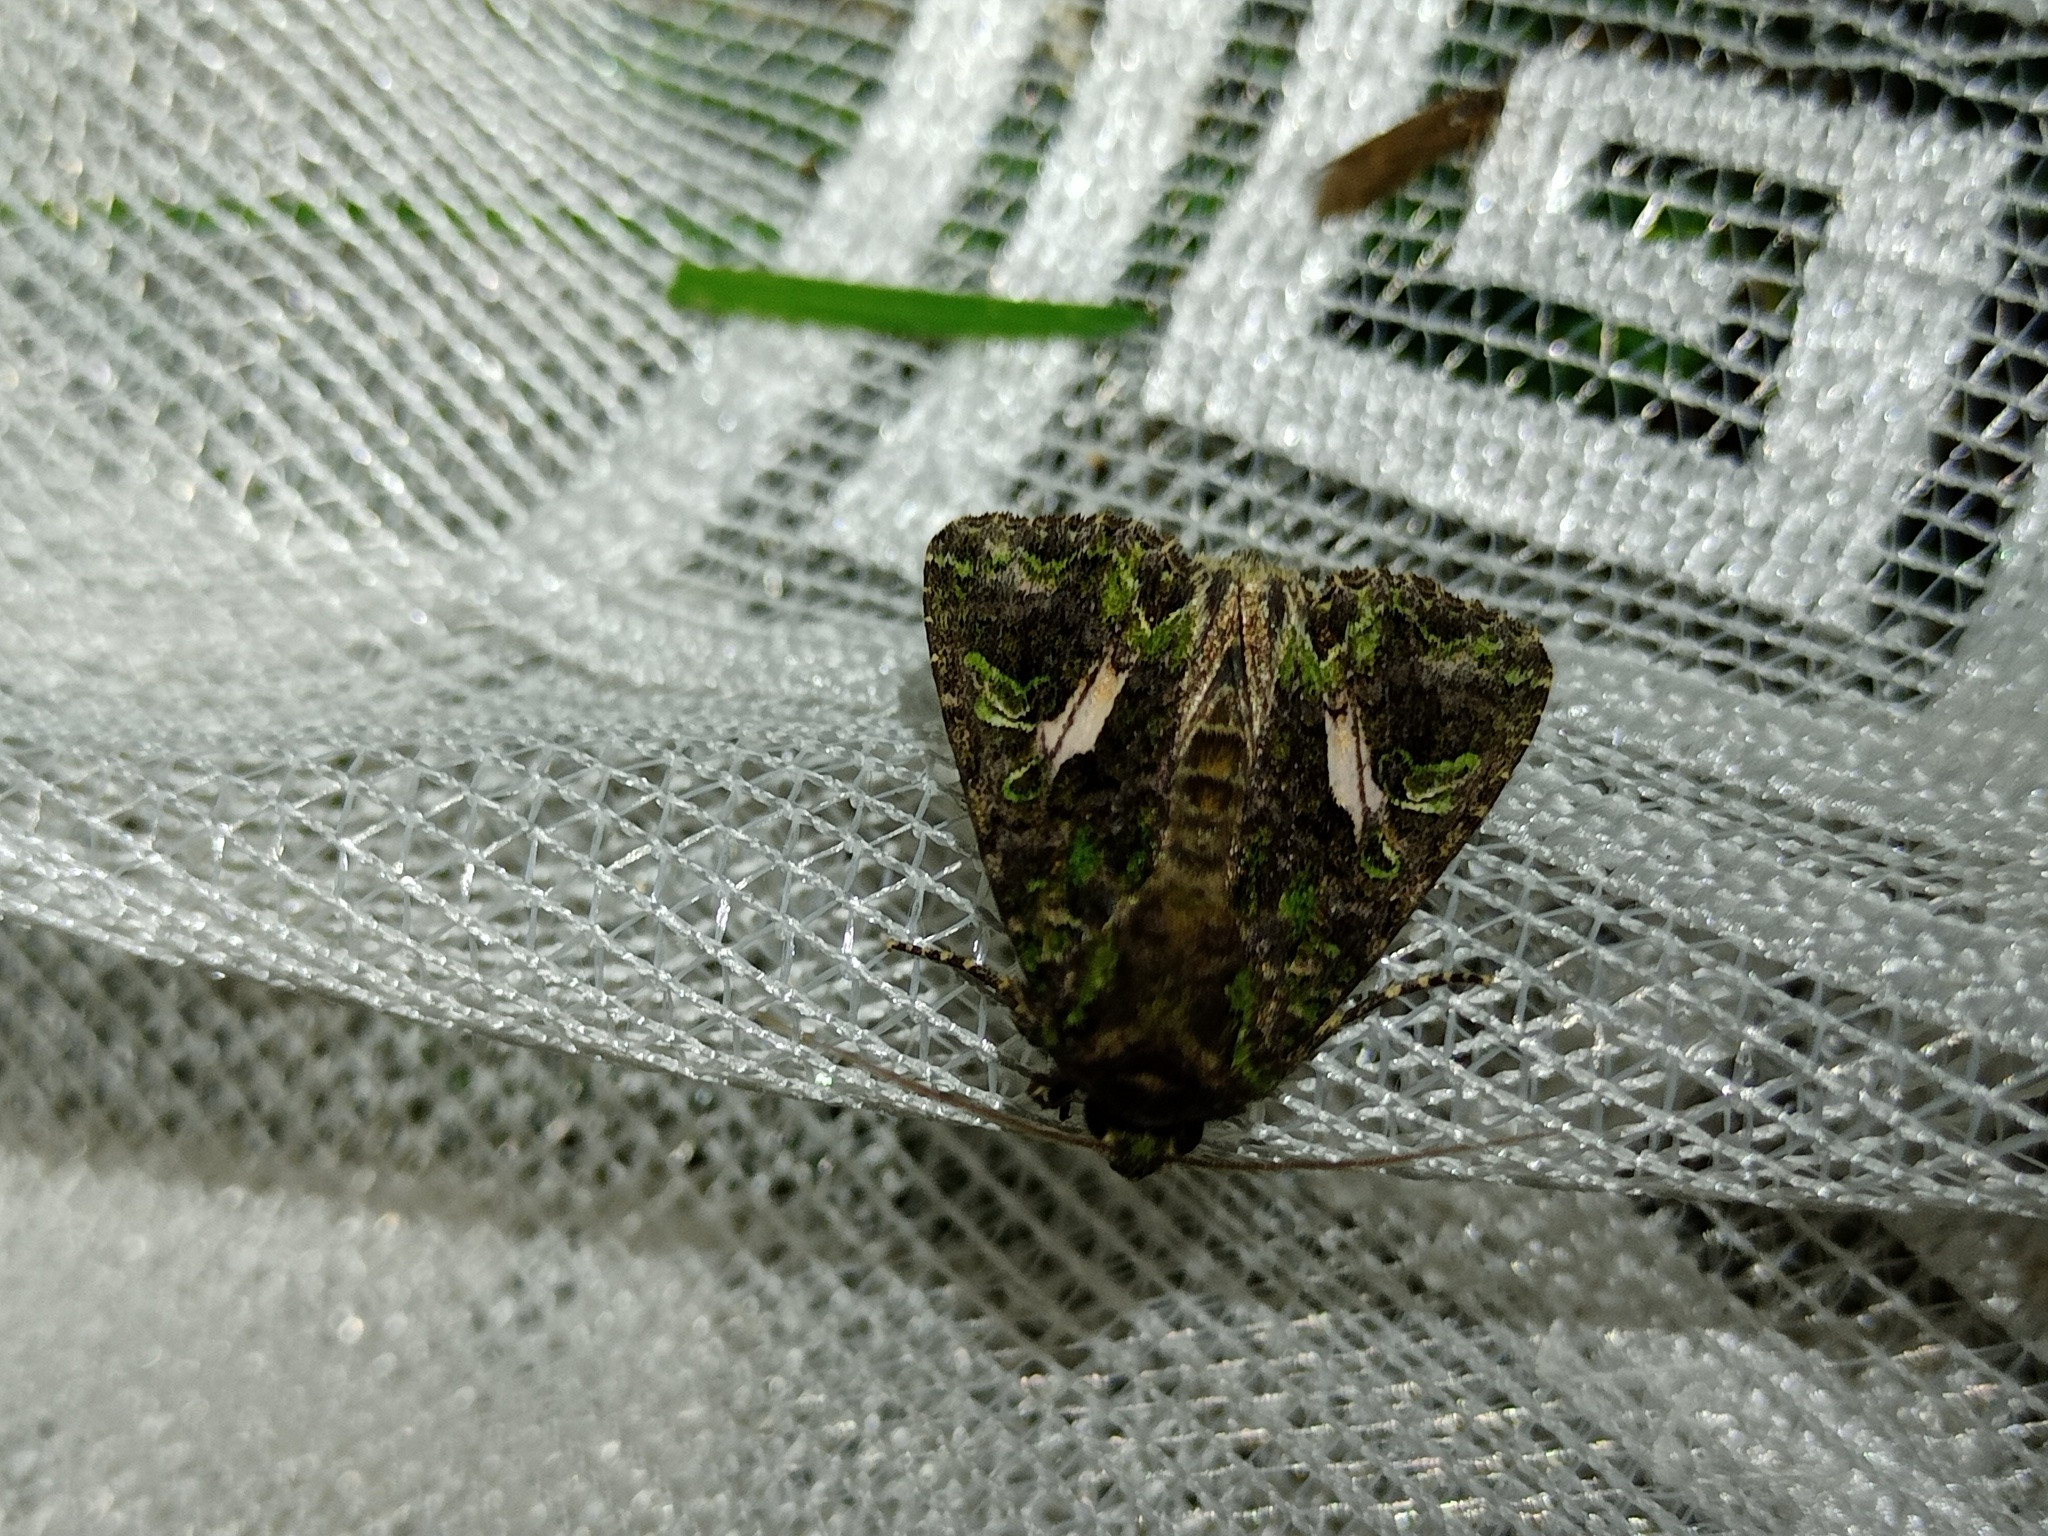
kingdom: Animalia
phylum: Arthropoda
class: Insecta
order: Lepidoptera
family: Noctuidae
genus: Trachea
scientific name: Trachea atriplicis
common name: Orache moth
